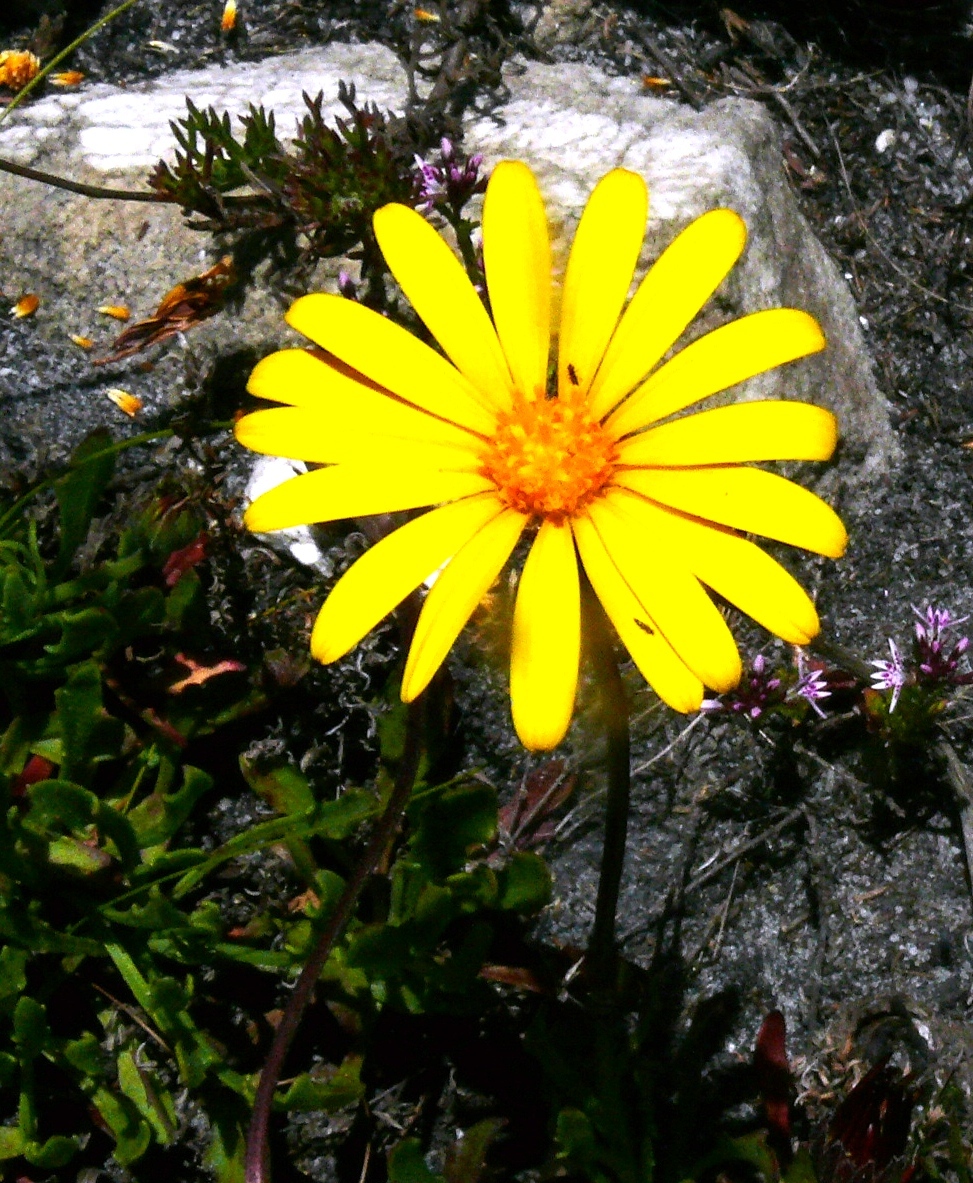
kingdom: Plantae
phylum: Tracheophyta
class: Magnoliopsida
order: Asterales
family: Asteraceae
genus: Osteospermum
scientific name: Osteospermum scariosum
